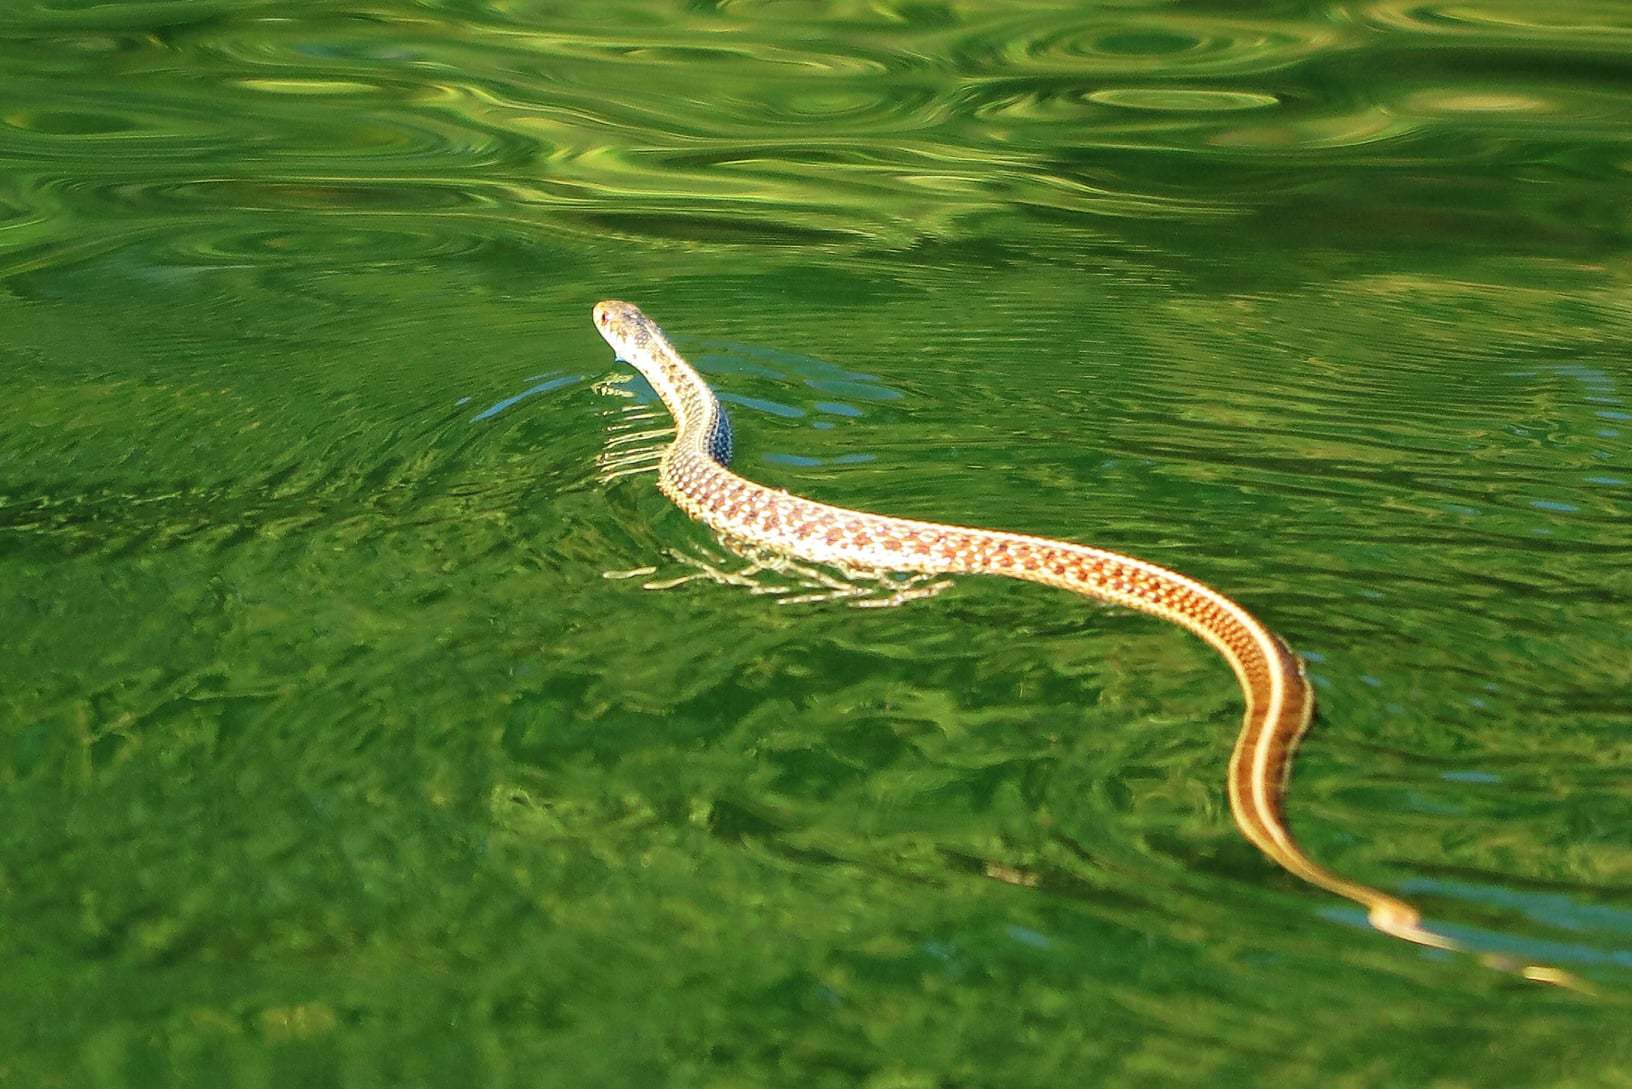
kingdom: Animalia
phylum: Chordata
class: Squamata
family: Colubridae
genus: Thamnophis
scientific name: Thamnophis sirtalis
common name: Common garter snake
